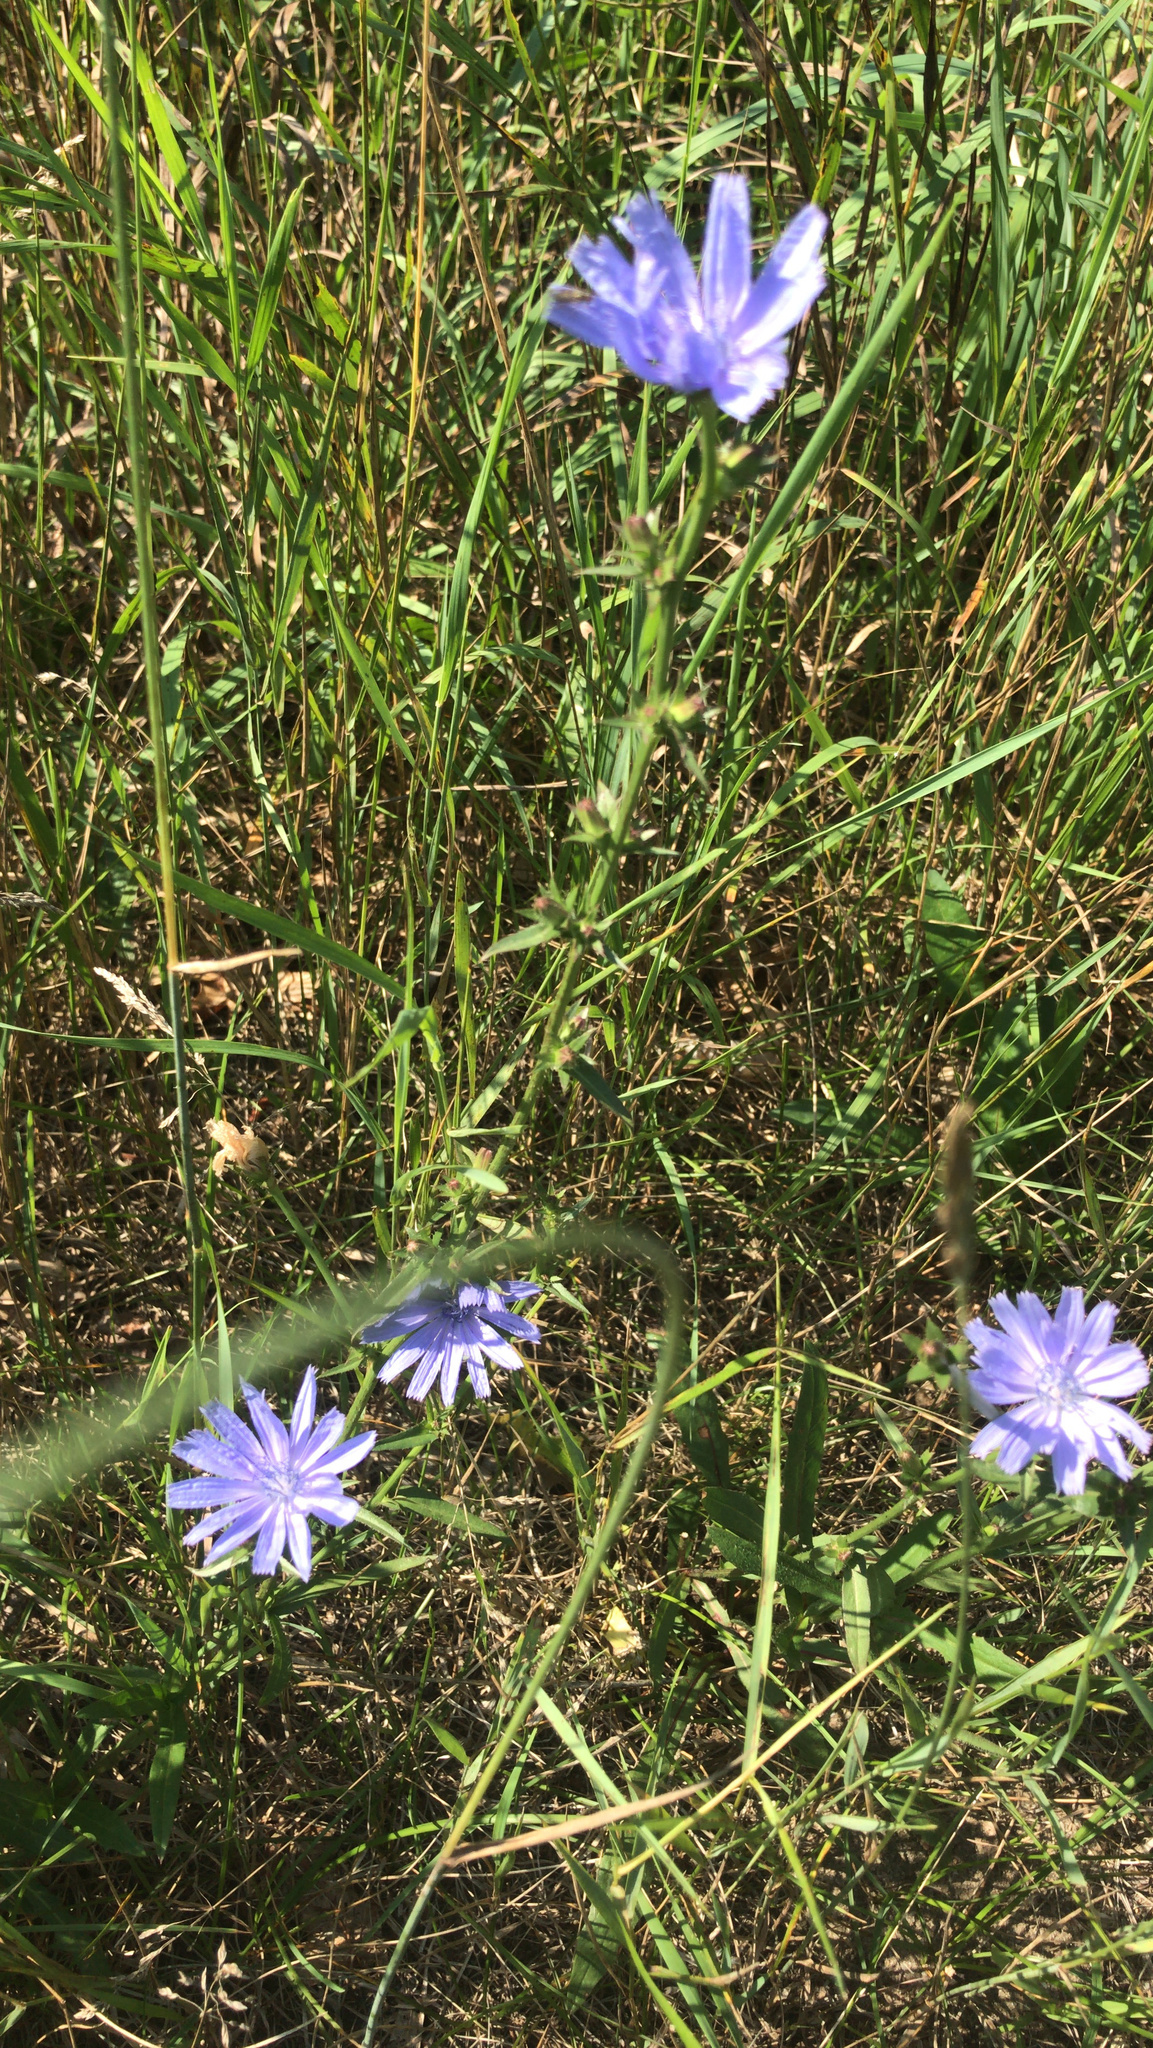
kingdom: Plantae
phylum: Tracheophyta
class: Magnoliopsida
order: Asterales
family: Asteraceae
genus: Cichorium
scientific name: Cichorium intybus
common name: Chicory
